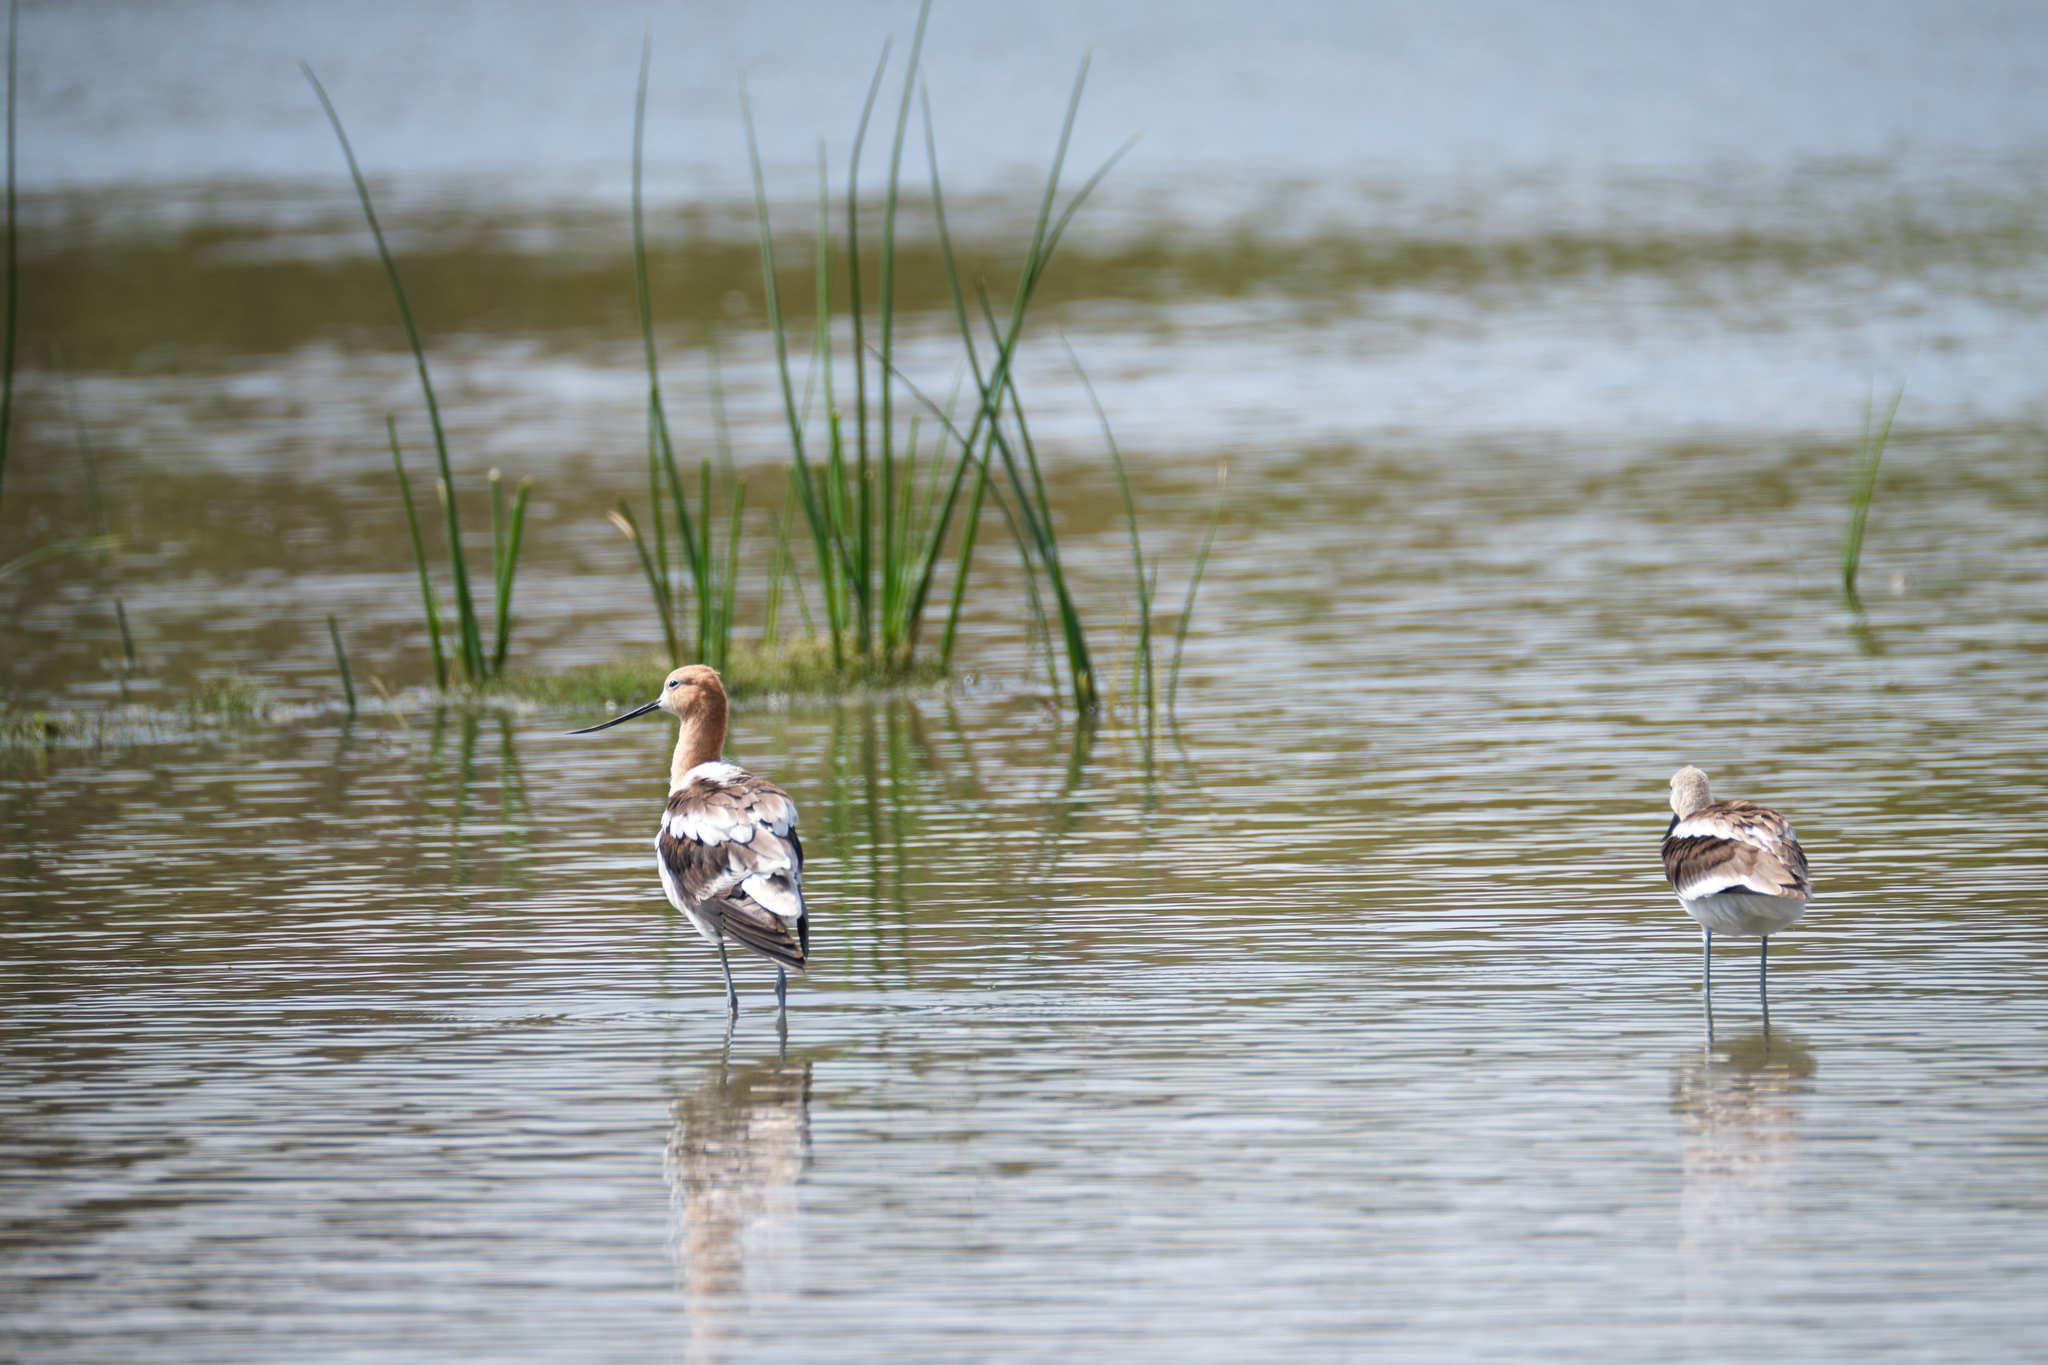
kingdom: Animalia
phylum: Chordata
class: Aves
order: Charadriiformes
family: Recurvirostridae
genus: Recurvirostra
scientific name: Recurvirostra americana
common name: American avocet
